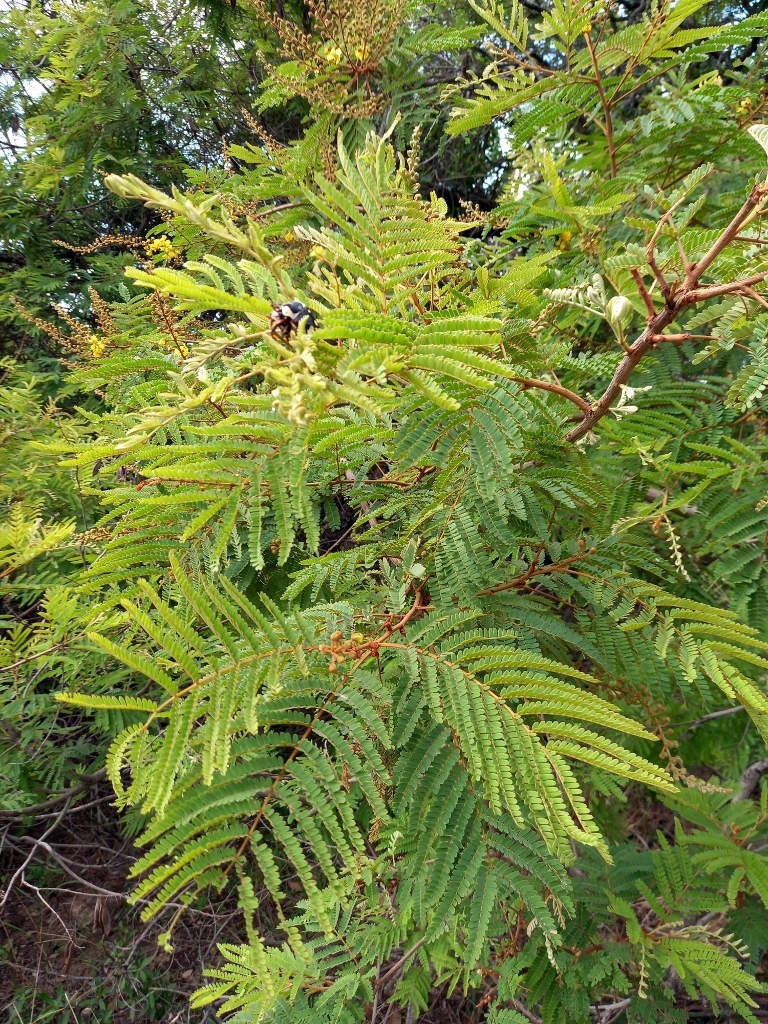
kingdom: Plantae
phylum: Tracheophyta
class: Magnoliopsida
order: Fabales
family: Fabaceae
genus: Peltophorum
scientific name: Peltophorum africanum
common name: African black wattle
